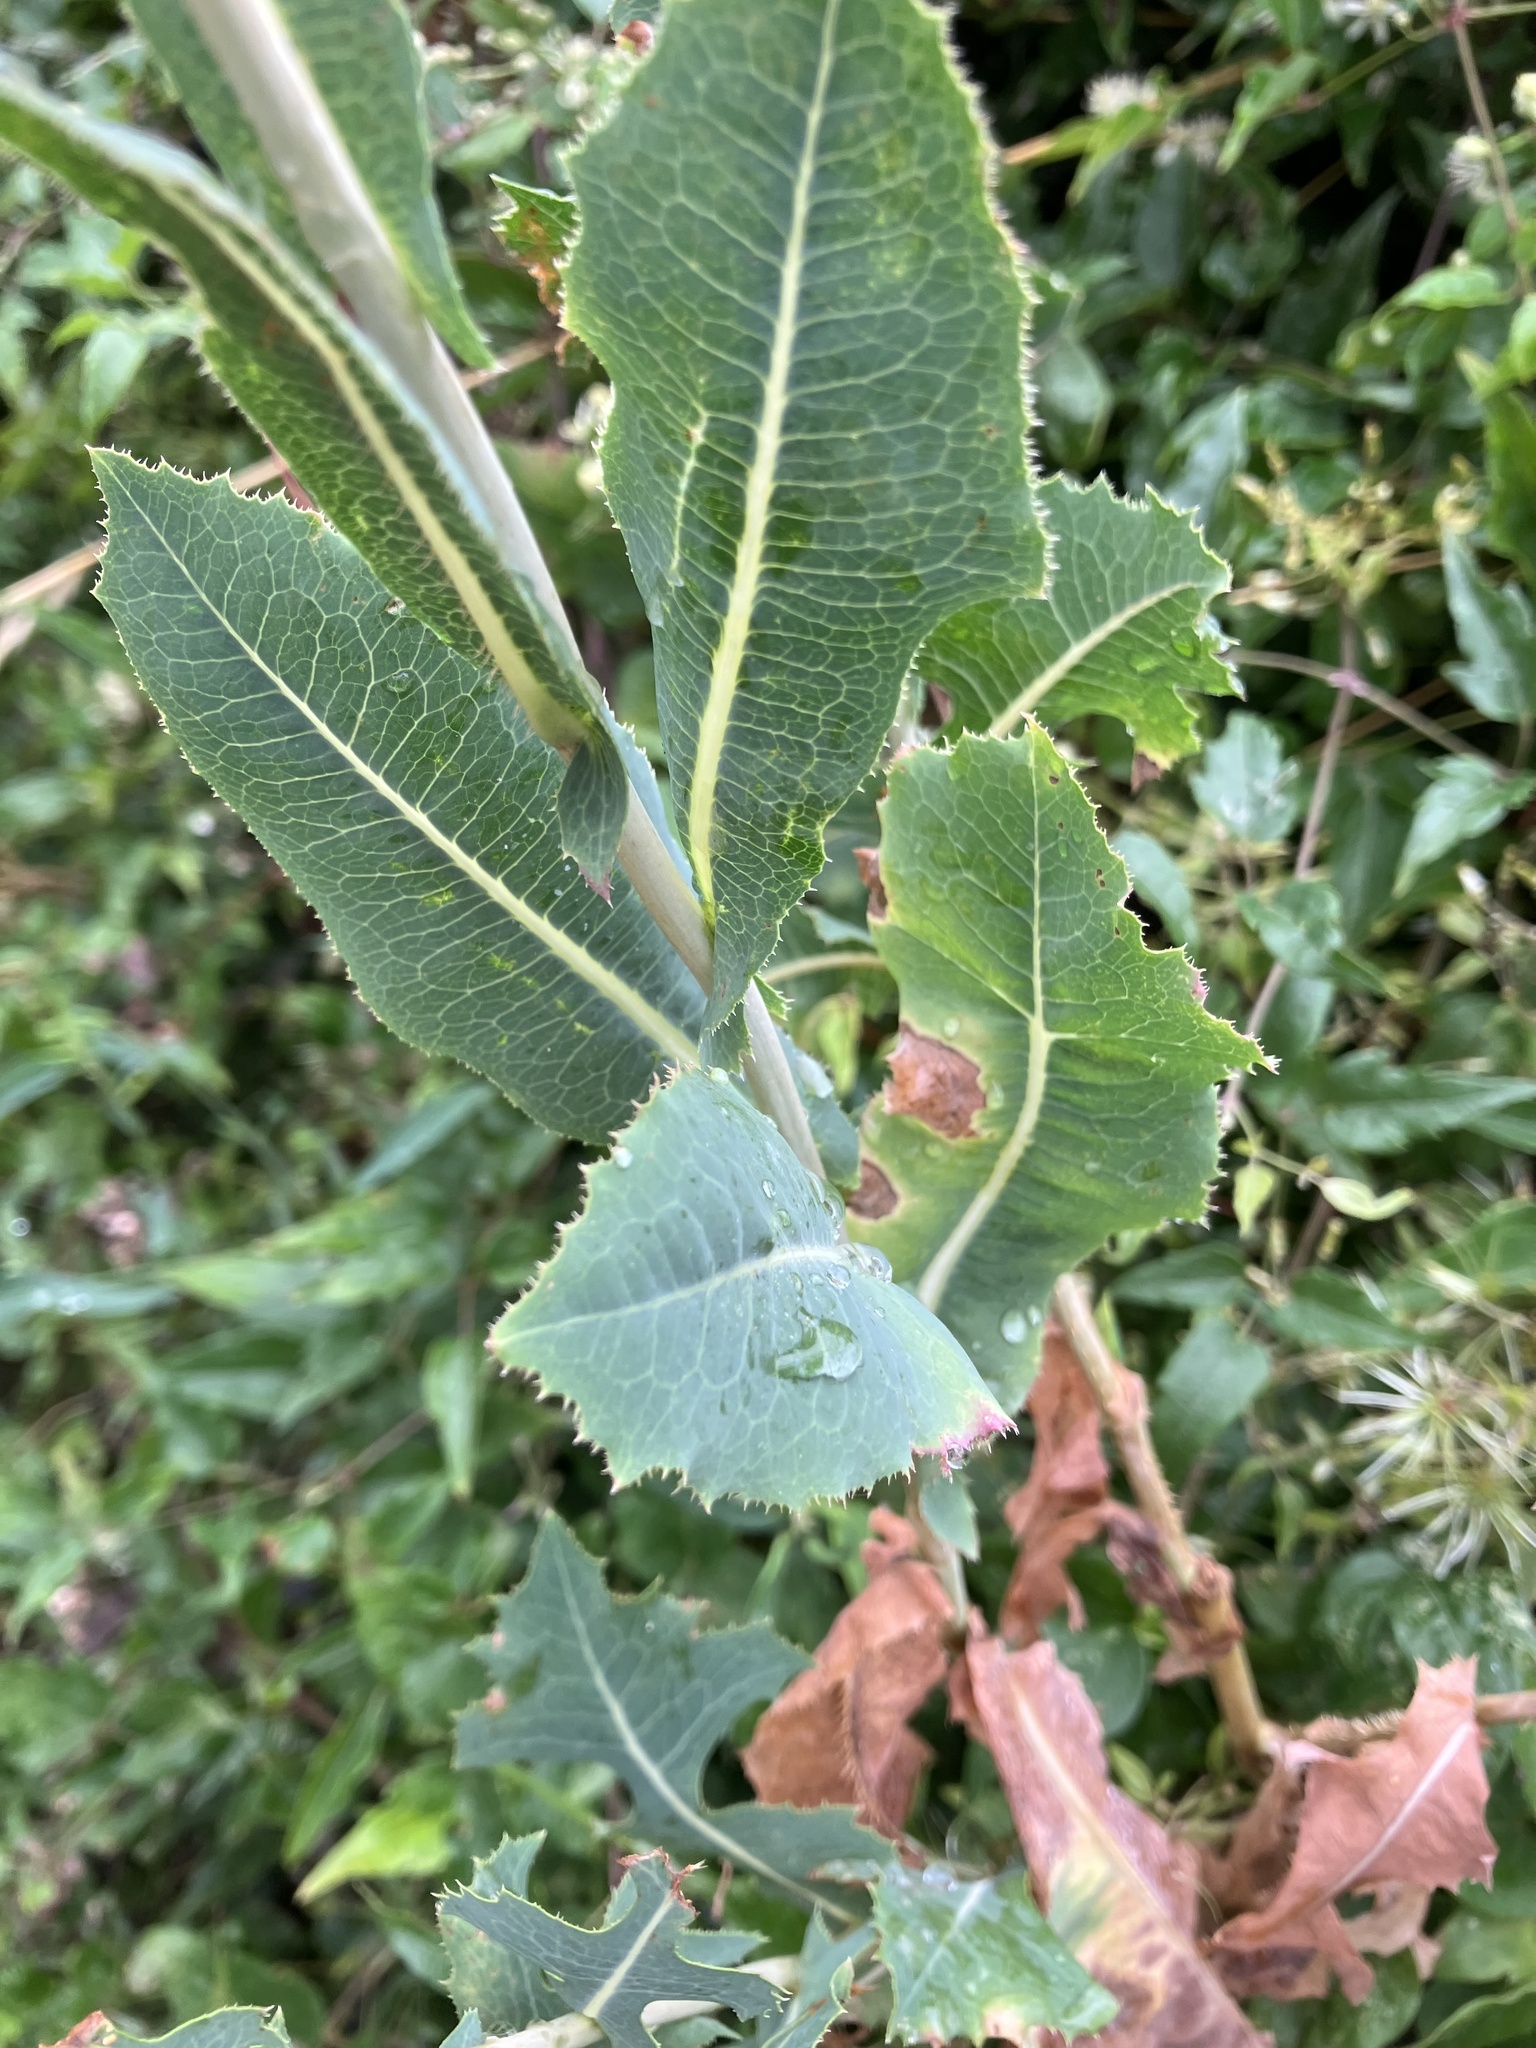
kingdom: Plantae
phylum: Tracheophyta
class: Magnoliopsida
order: Asterales
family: Asteraceae
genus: Lactuca
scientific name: Lactuca serriola
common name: Prickly lettuce
